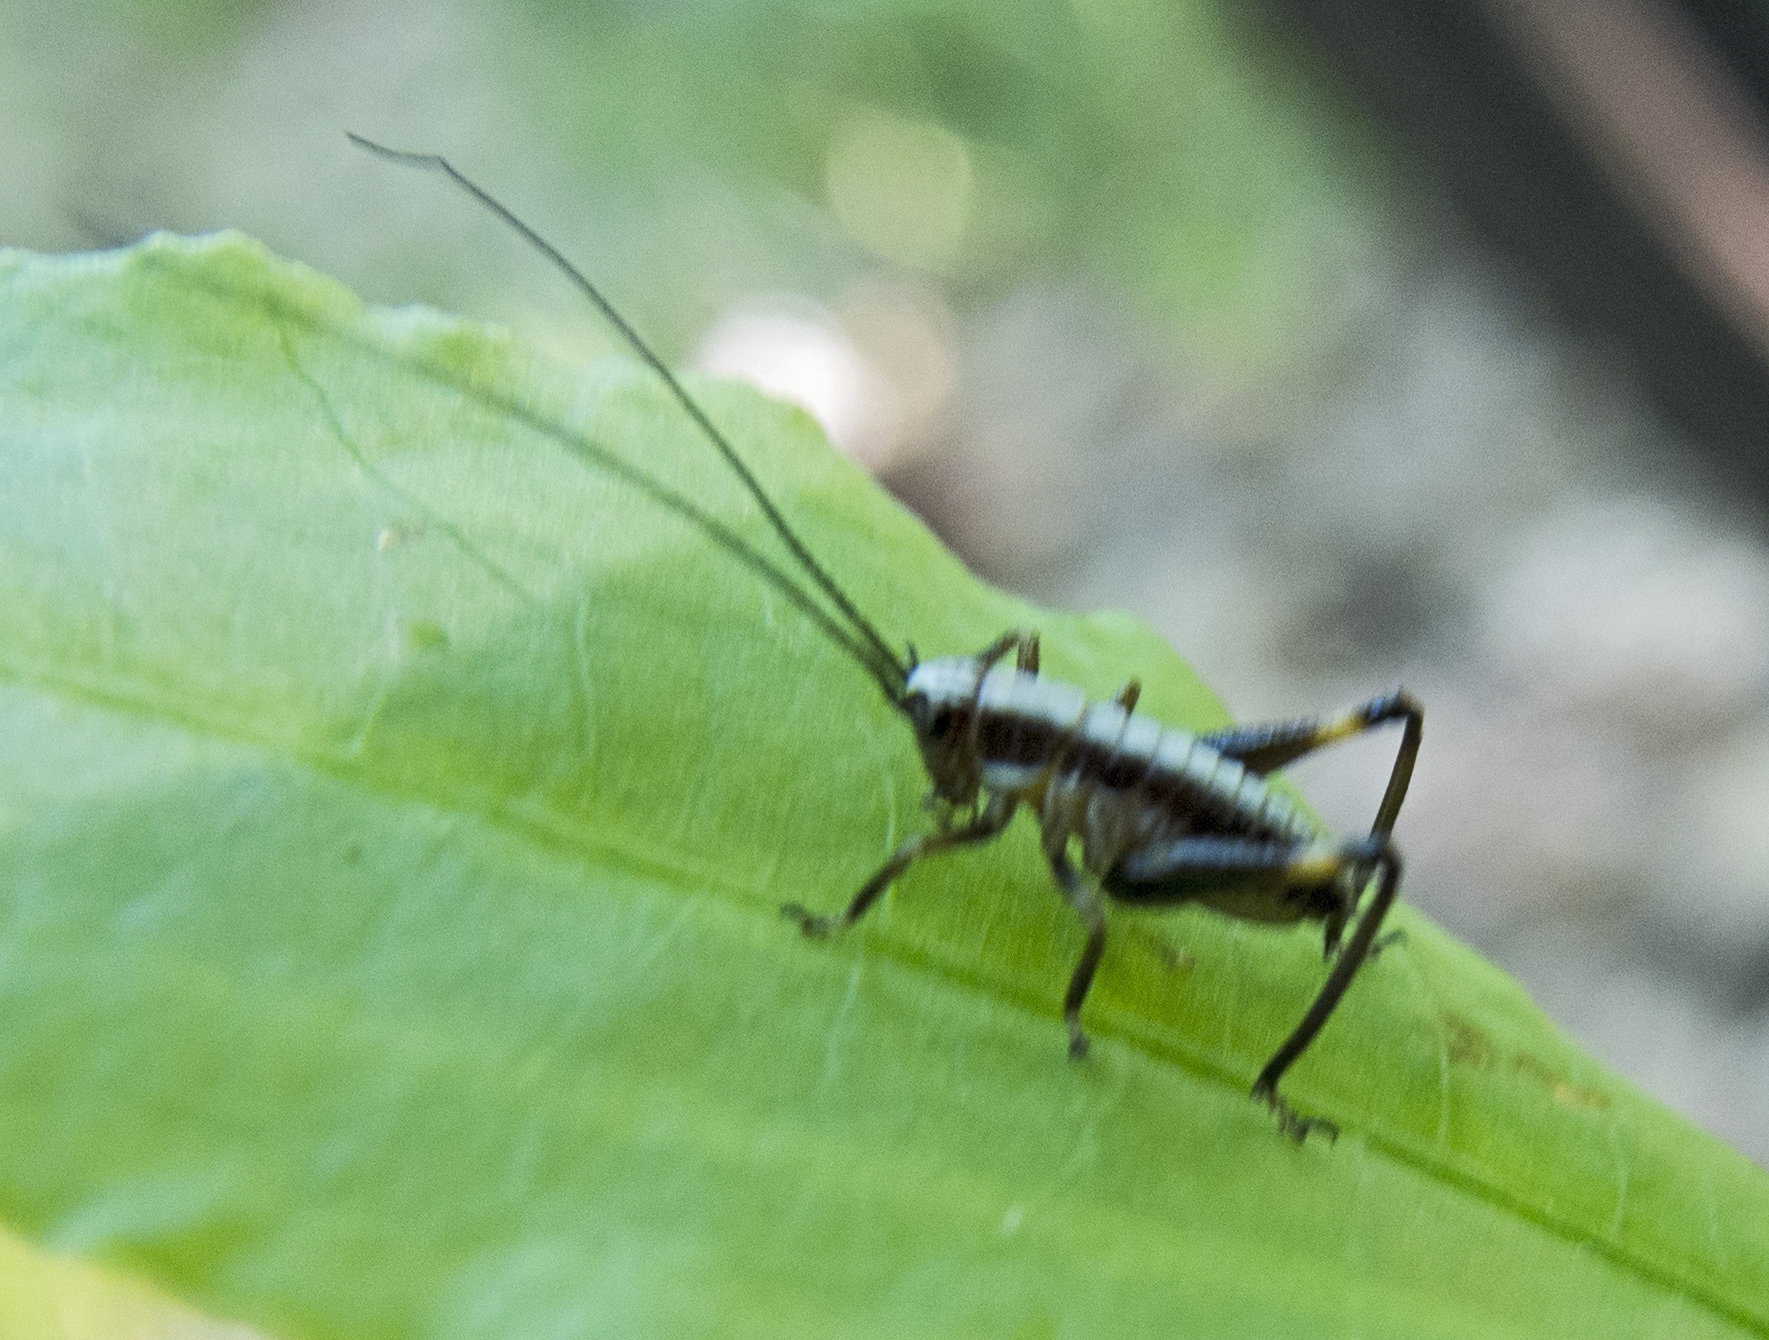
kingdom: Animalia
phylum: Arthropoda
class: Insecta
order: Orthoptera
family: Tettigoniidae
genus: Pholidoptera
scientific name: Pholidoptera griseoaptera
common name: Dark bush-cricket
